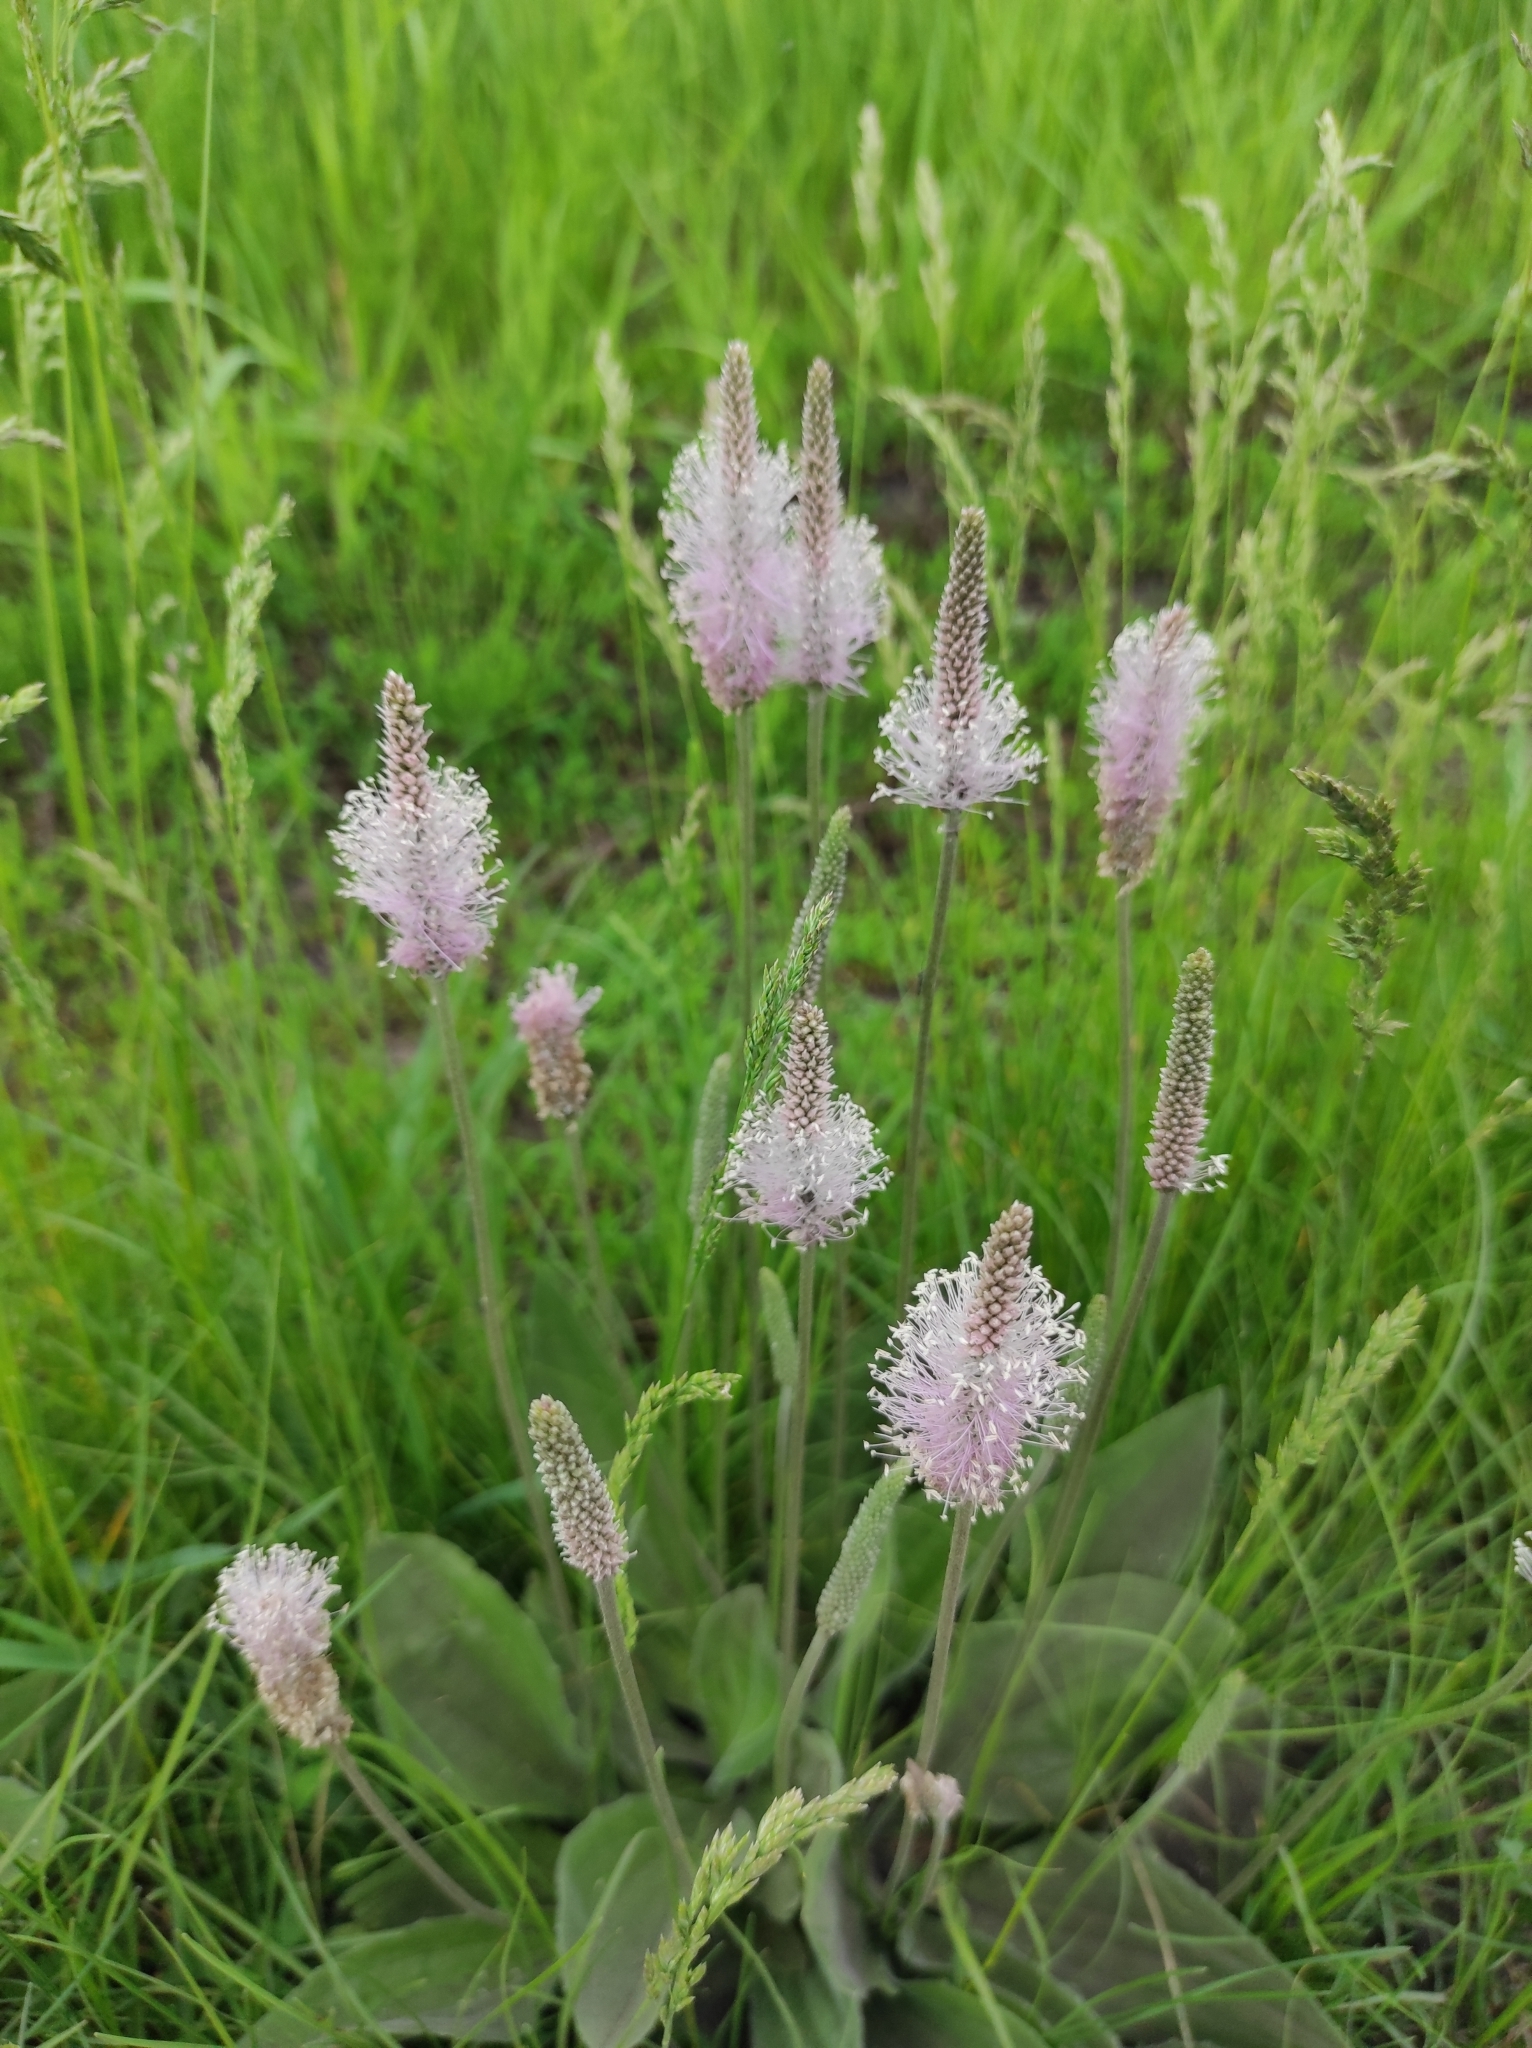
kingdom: Plantae
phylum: Tracheophyta
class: Magnoliopsida
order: Lamiales
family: Plantaginaceae
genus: Plantago
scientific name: Plantago media
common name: Hoary plantain
